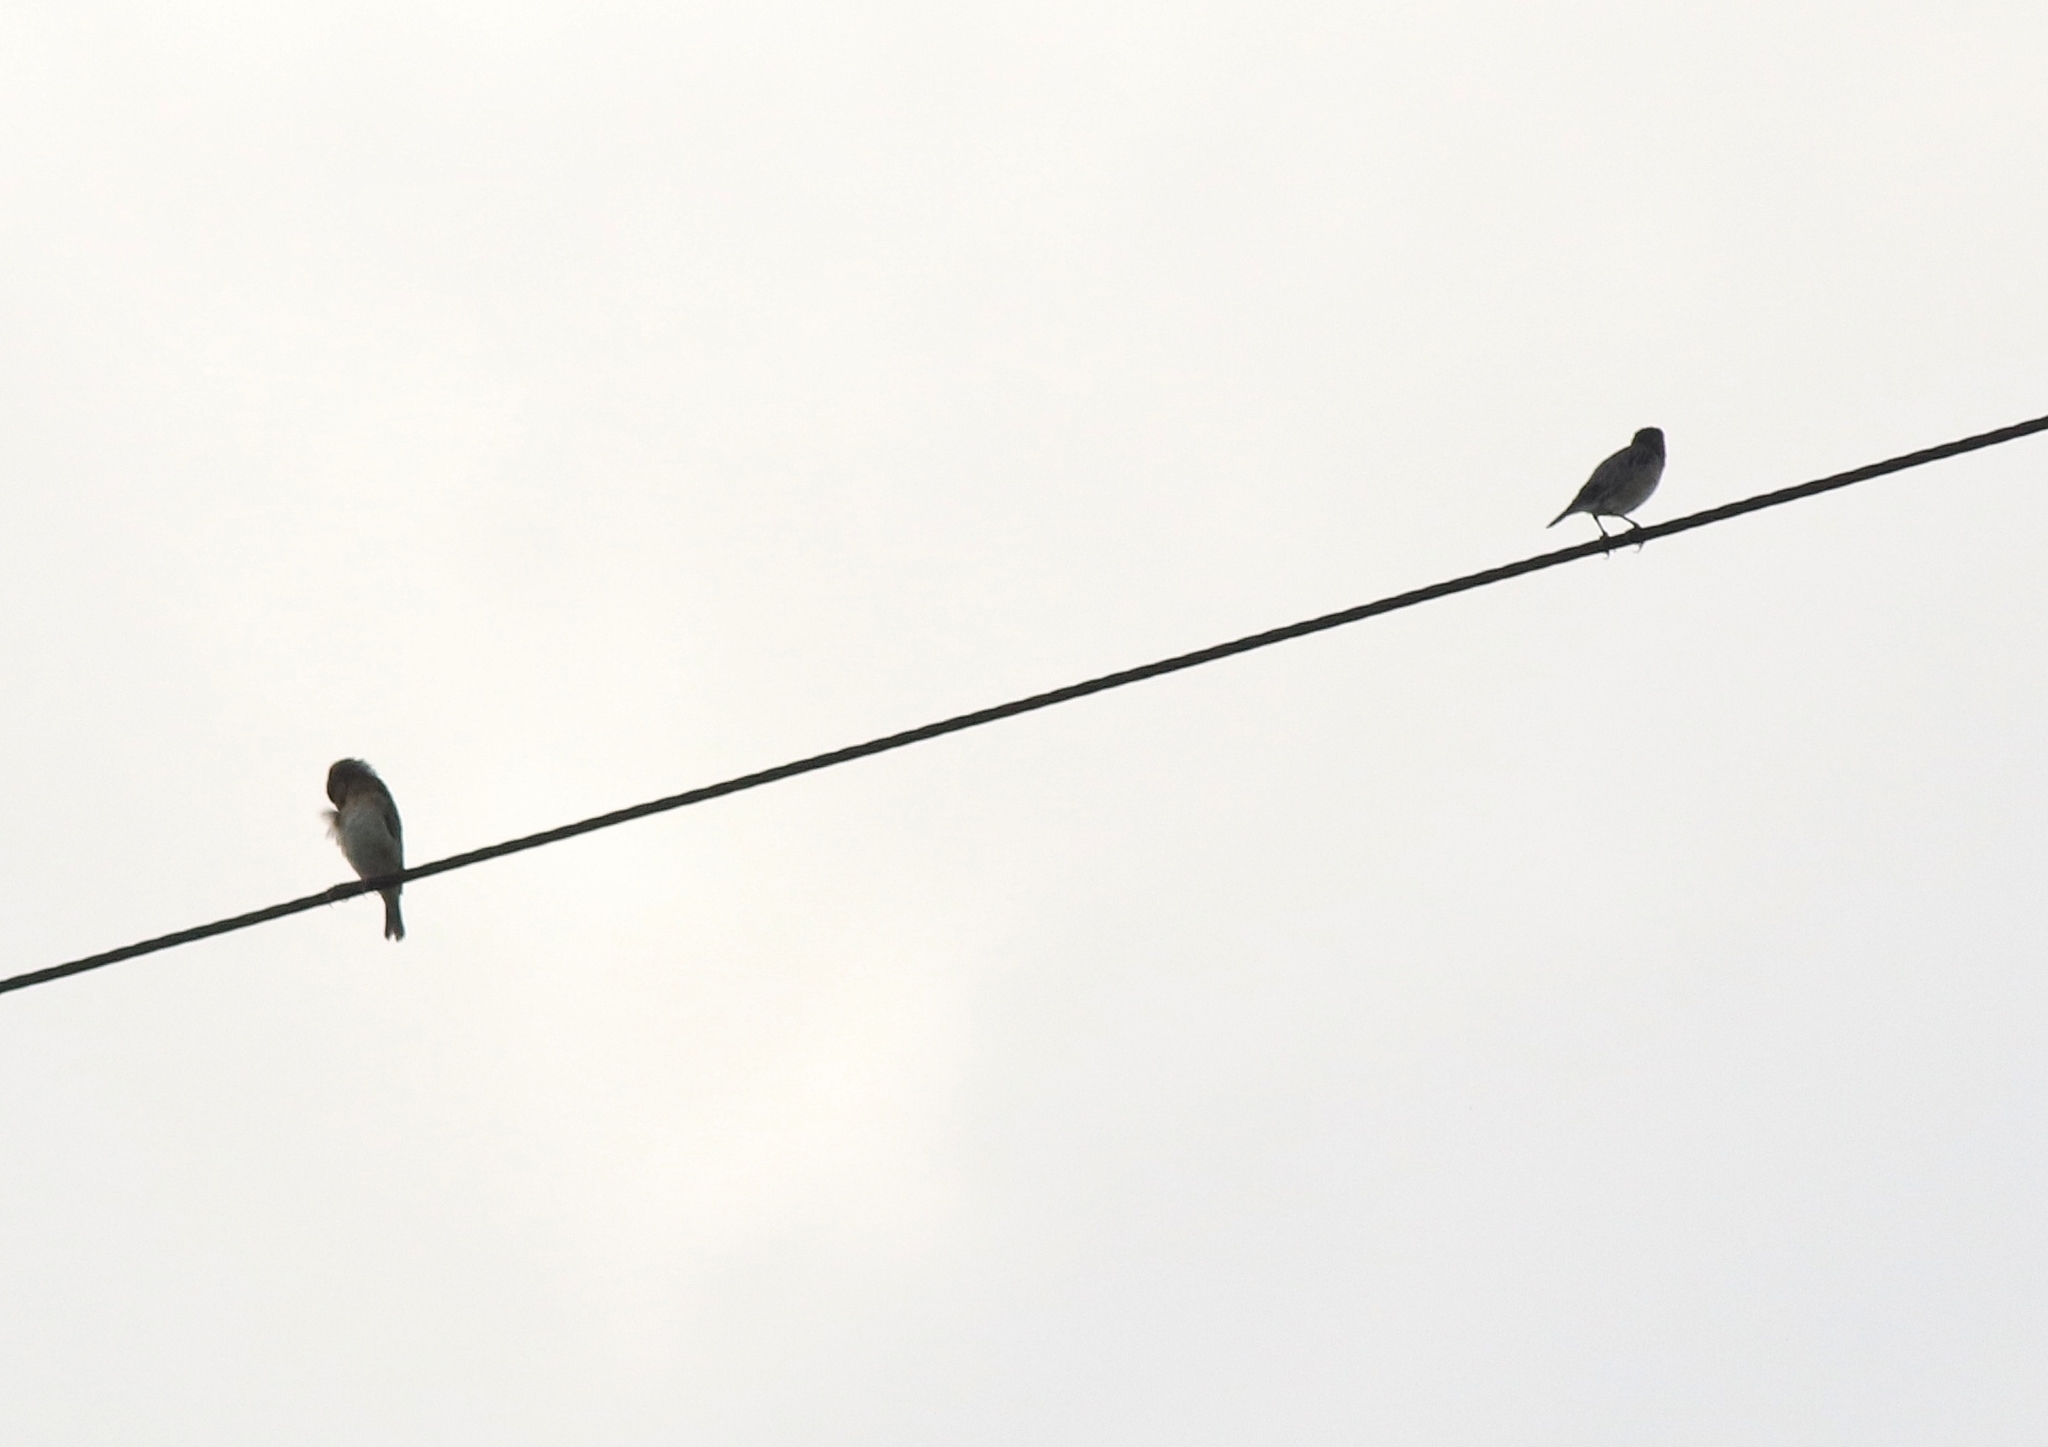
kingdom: Animalia
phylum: Chordata
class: Aves
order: Passeriformes
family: Estrildidae
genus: Lonchura
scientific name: Lonchura punctulata
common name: Scaly-breasted munia
